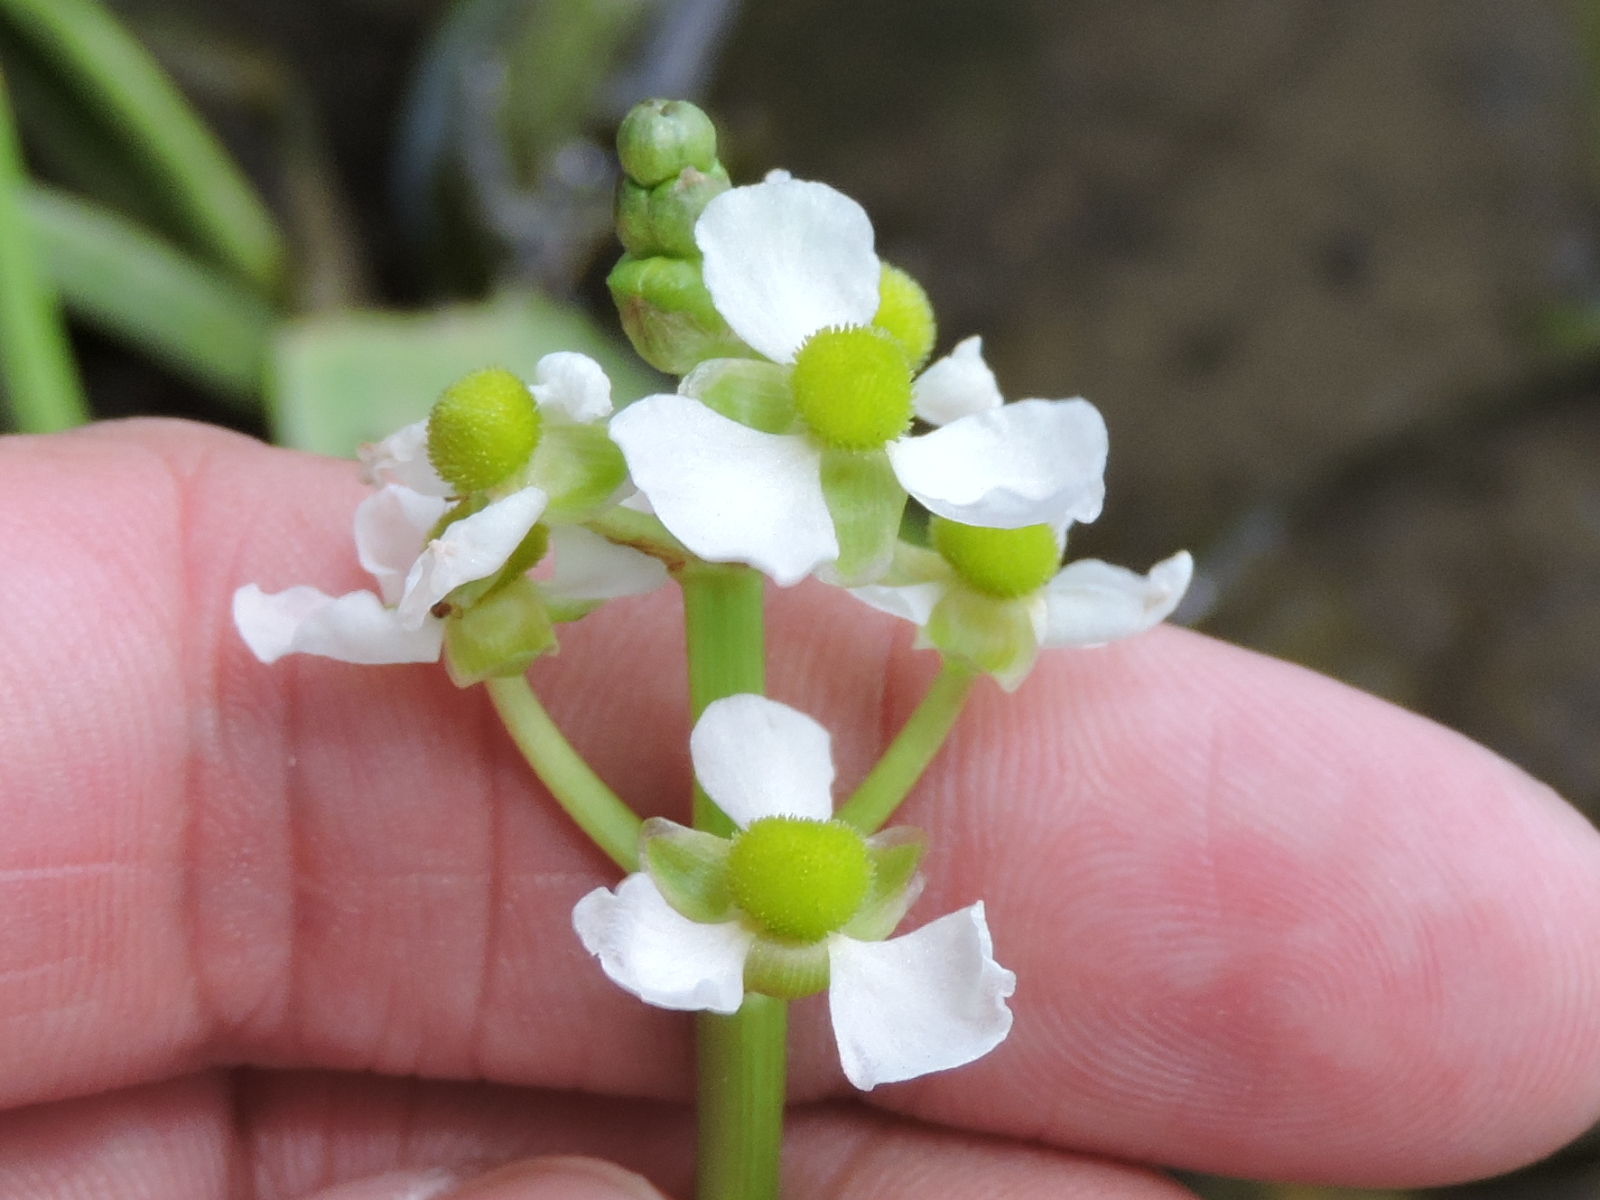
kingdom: Plantae
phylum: Tracheophyta
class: Liliopsida
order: Alismatales
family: Alismataceae
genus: Sagittaria
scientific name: Sagittaria platyphylla
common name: Broad-leaf arrowhead
